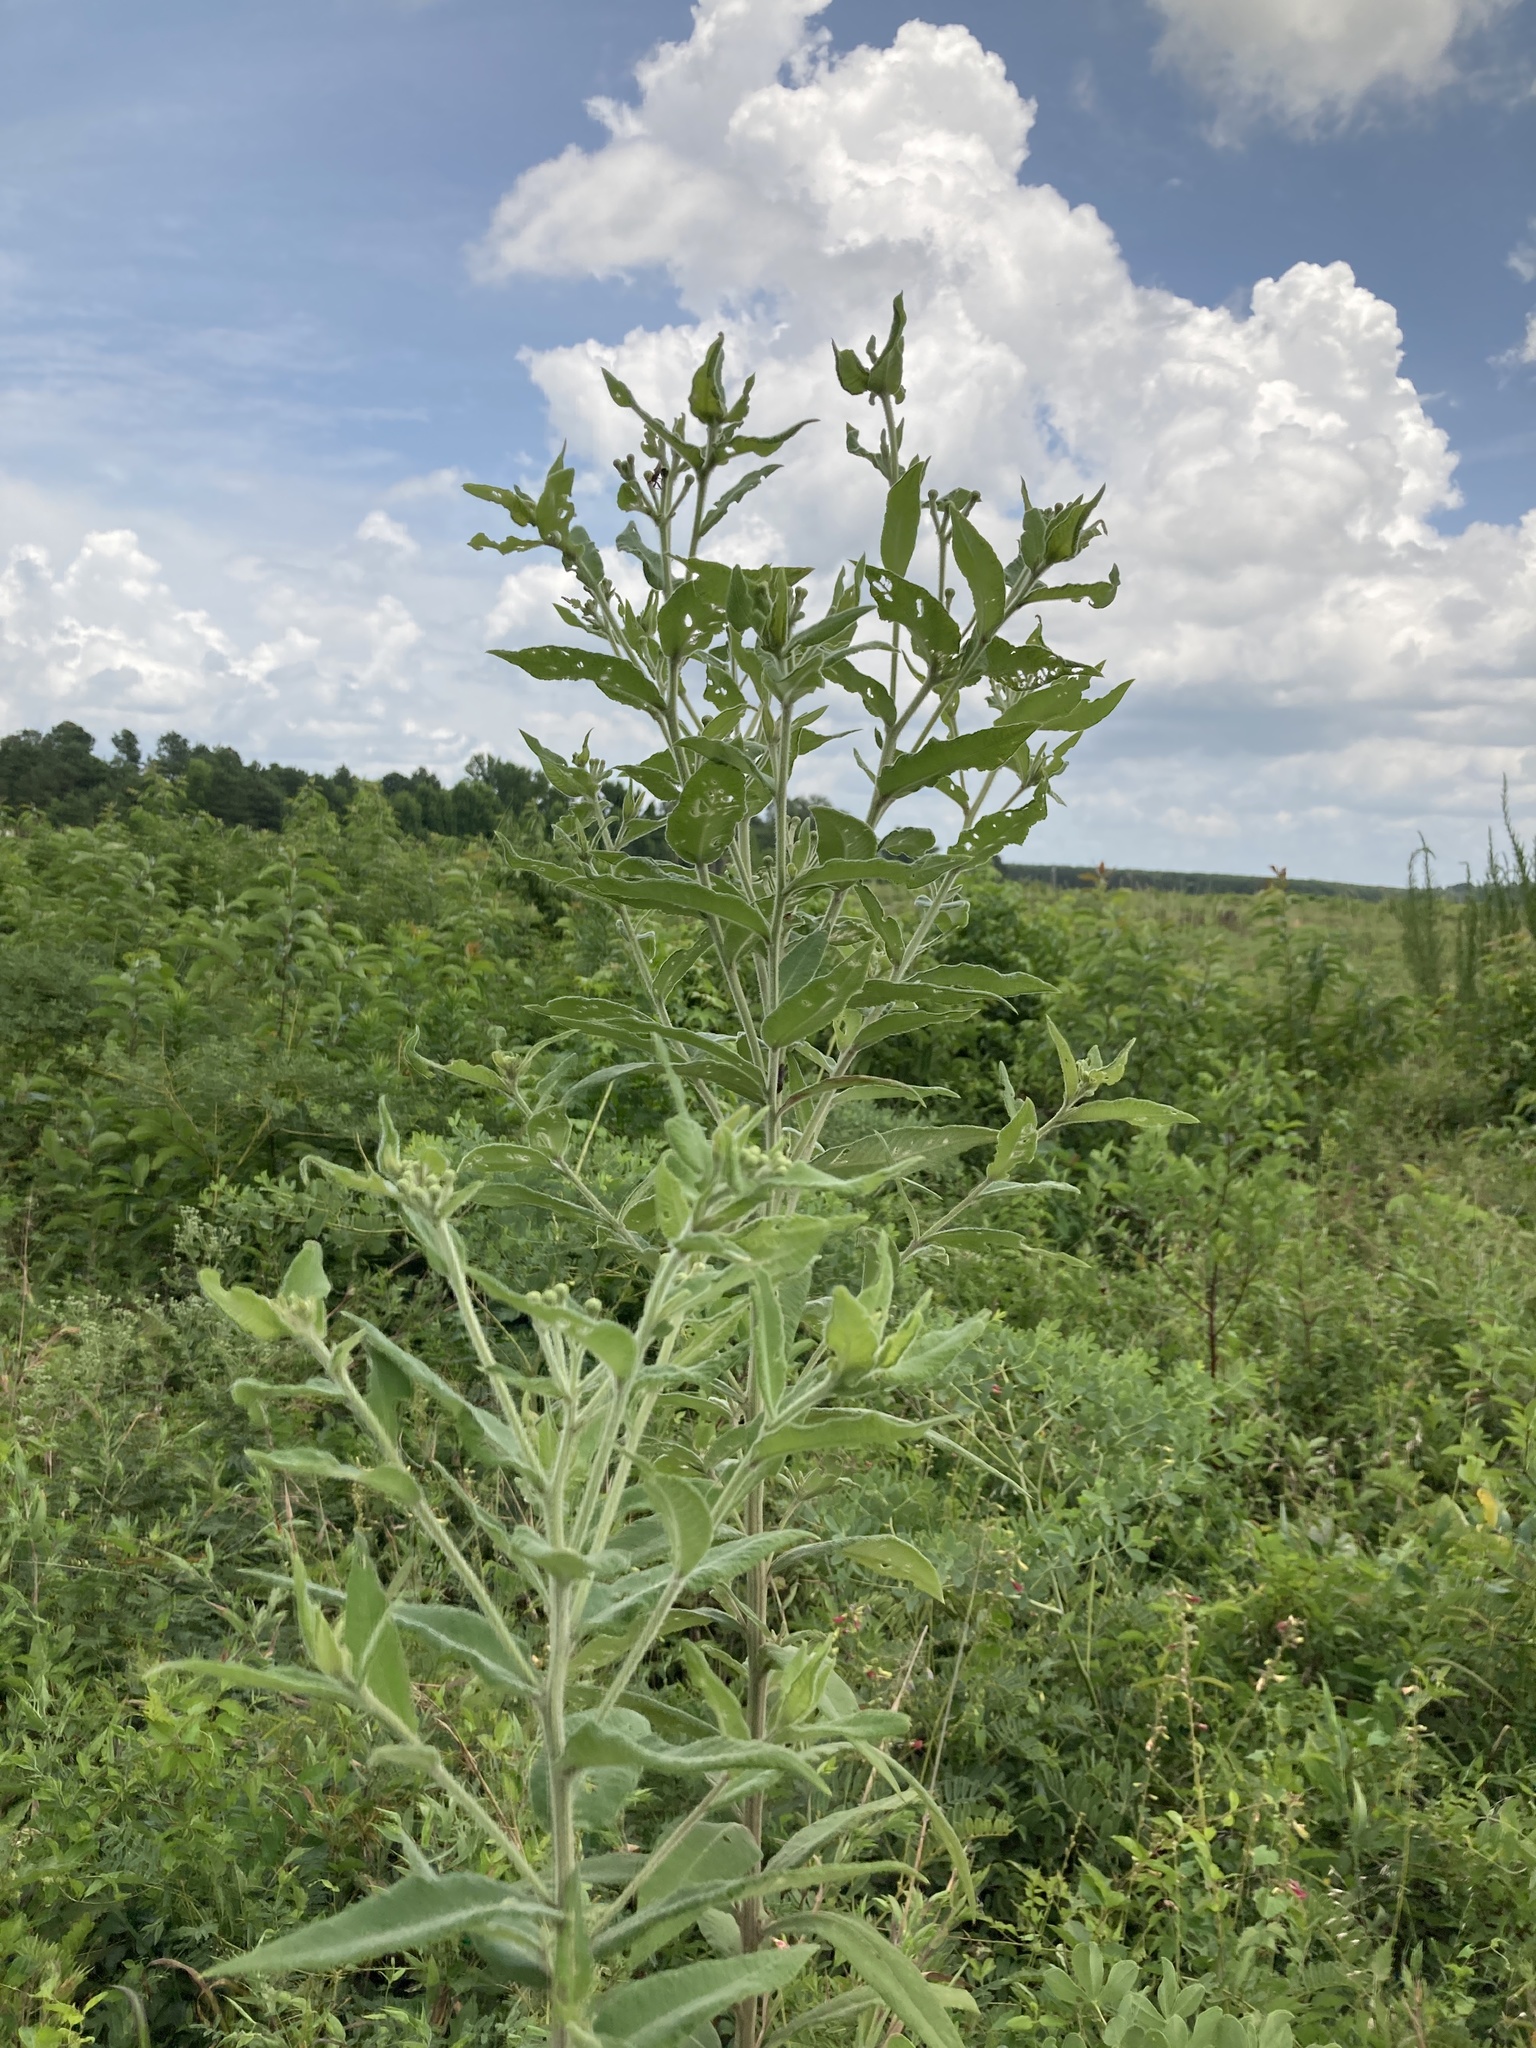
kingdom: Plantae
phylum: Tracheophyta
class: Magnoliopsida
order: Asterales
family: Asteraceae
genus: Vernonia
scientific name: Vernonia missurica
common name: Missouri ironweed
